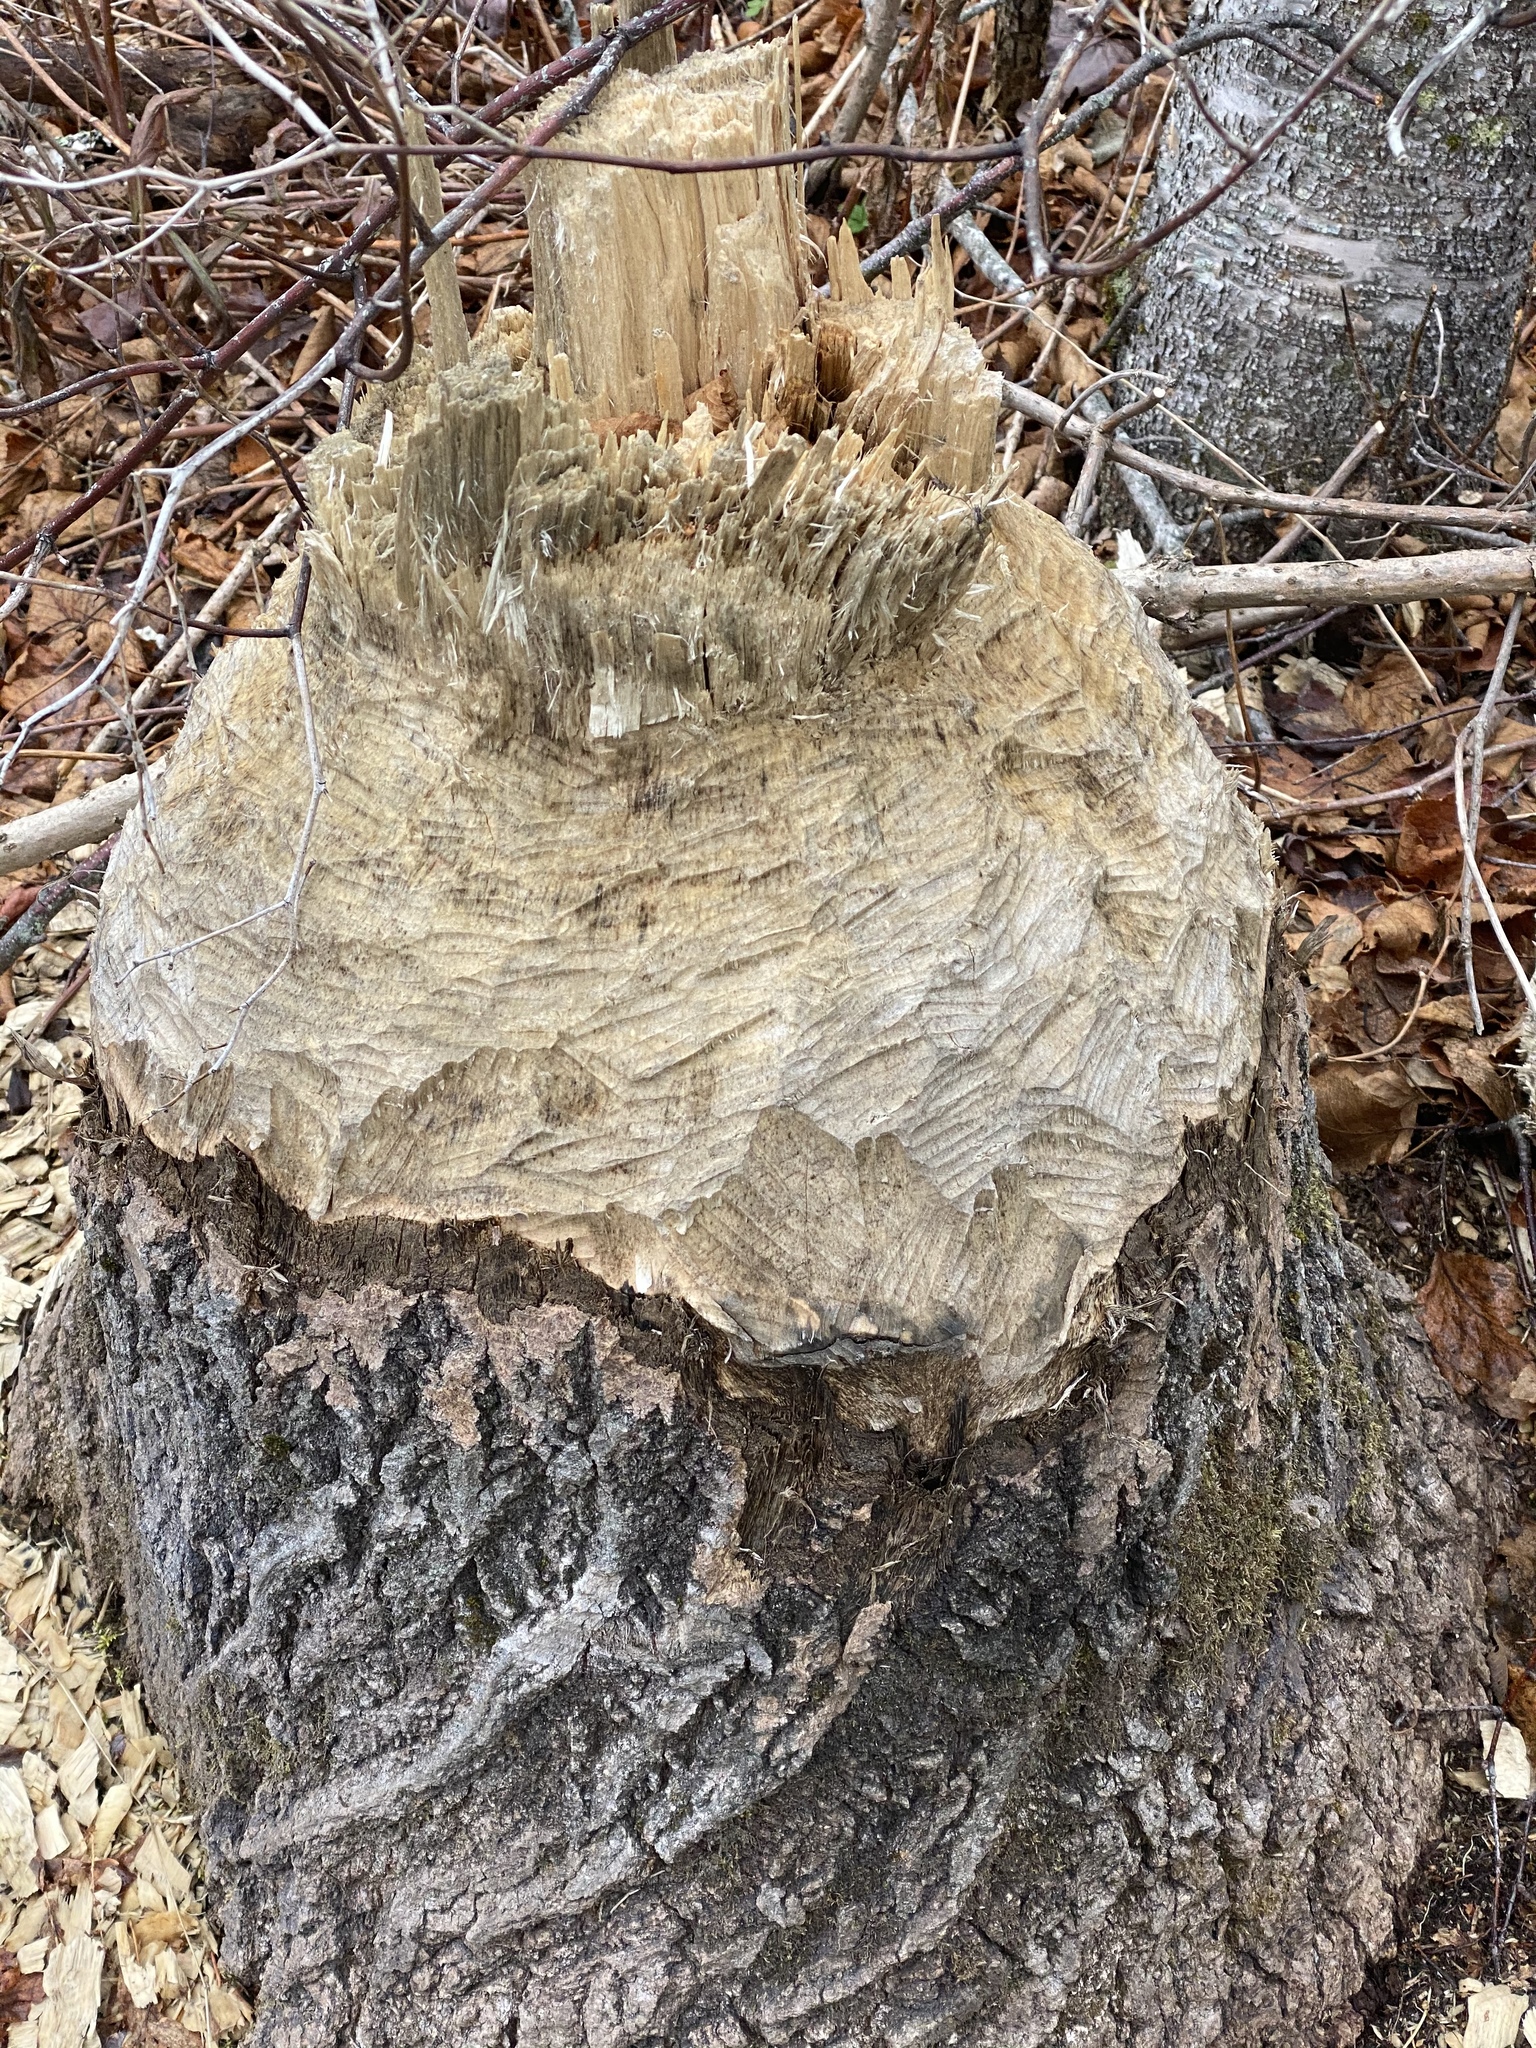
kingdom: Animalia
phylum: Chordata
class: Mammalia
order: Rodentia
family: Castoridae
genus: Castor
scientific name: Castor canadensis
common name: American beaver
